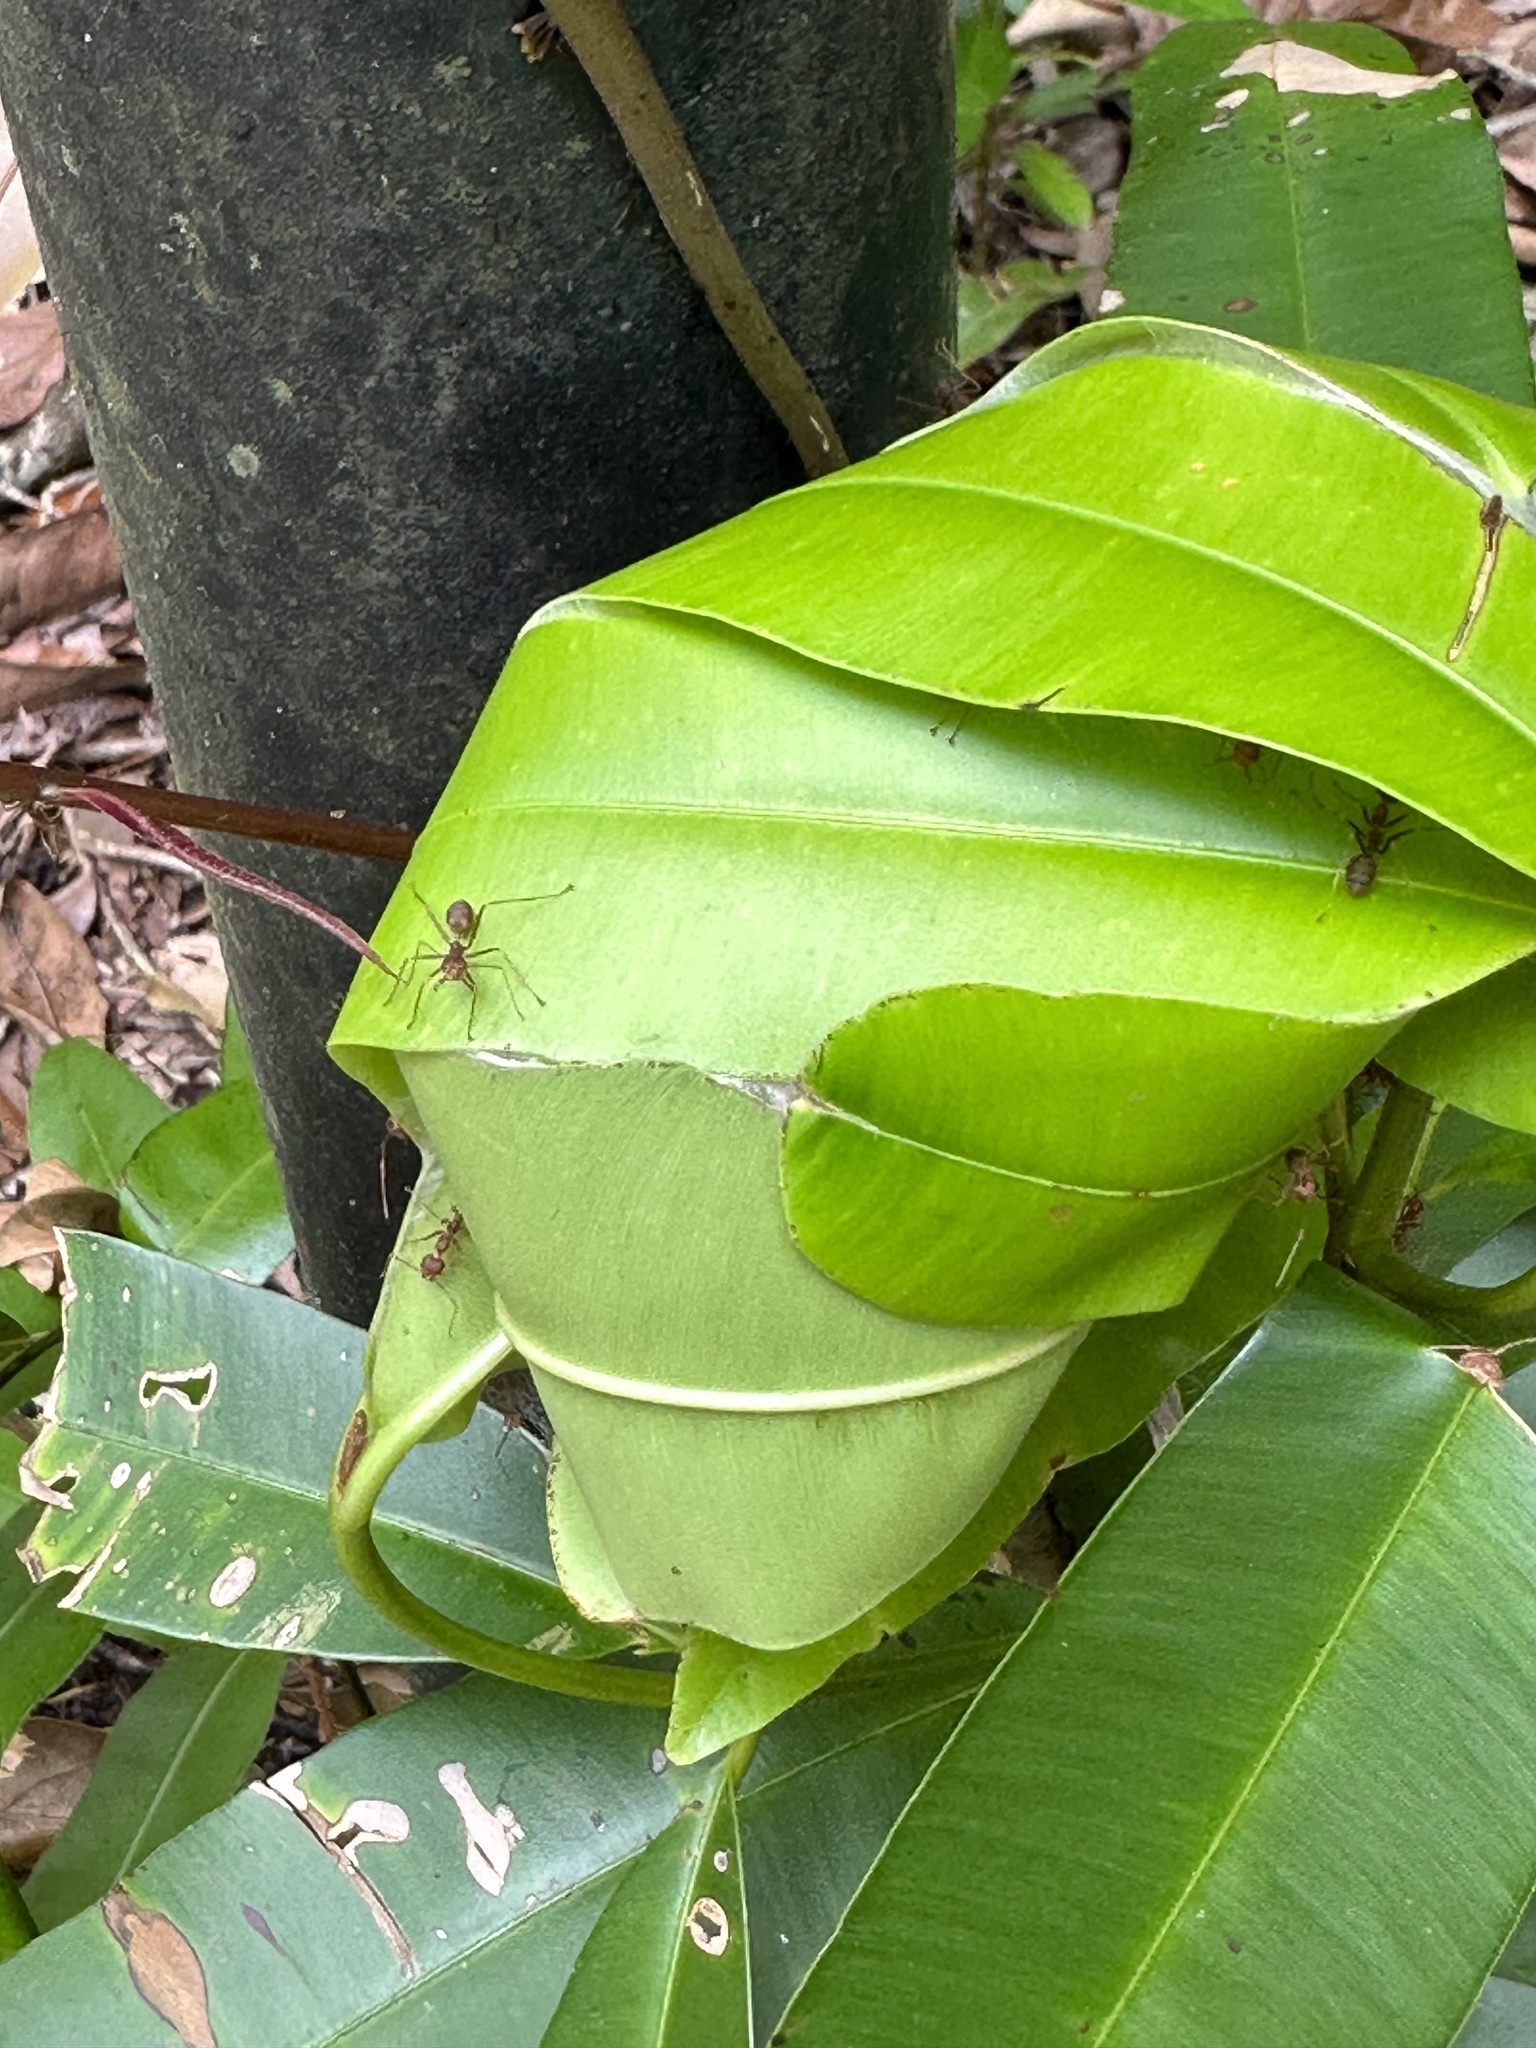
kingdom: Animalia
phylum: Arthropoda
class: Insecta
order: Hymenoptera
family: Formicidae
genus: Oecophylla
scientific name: Oecophylla smaragdina
